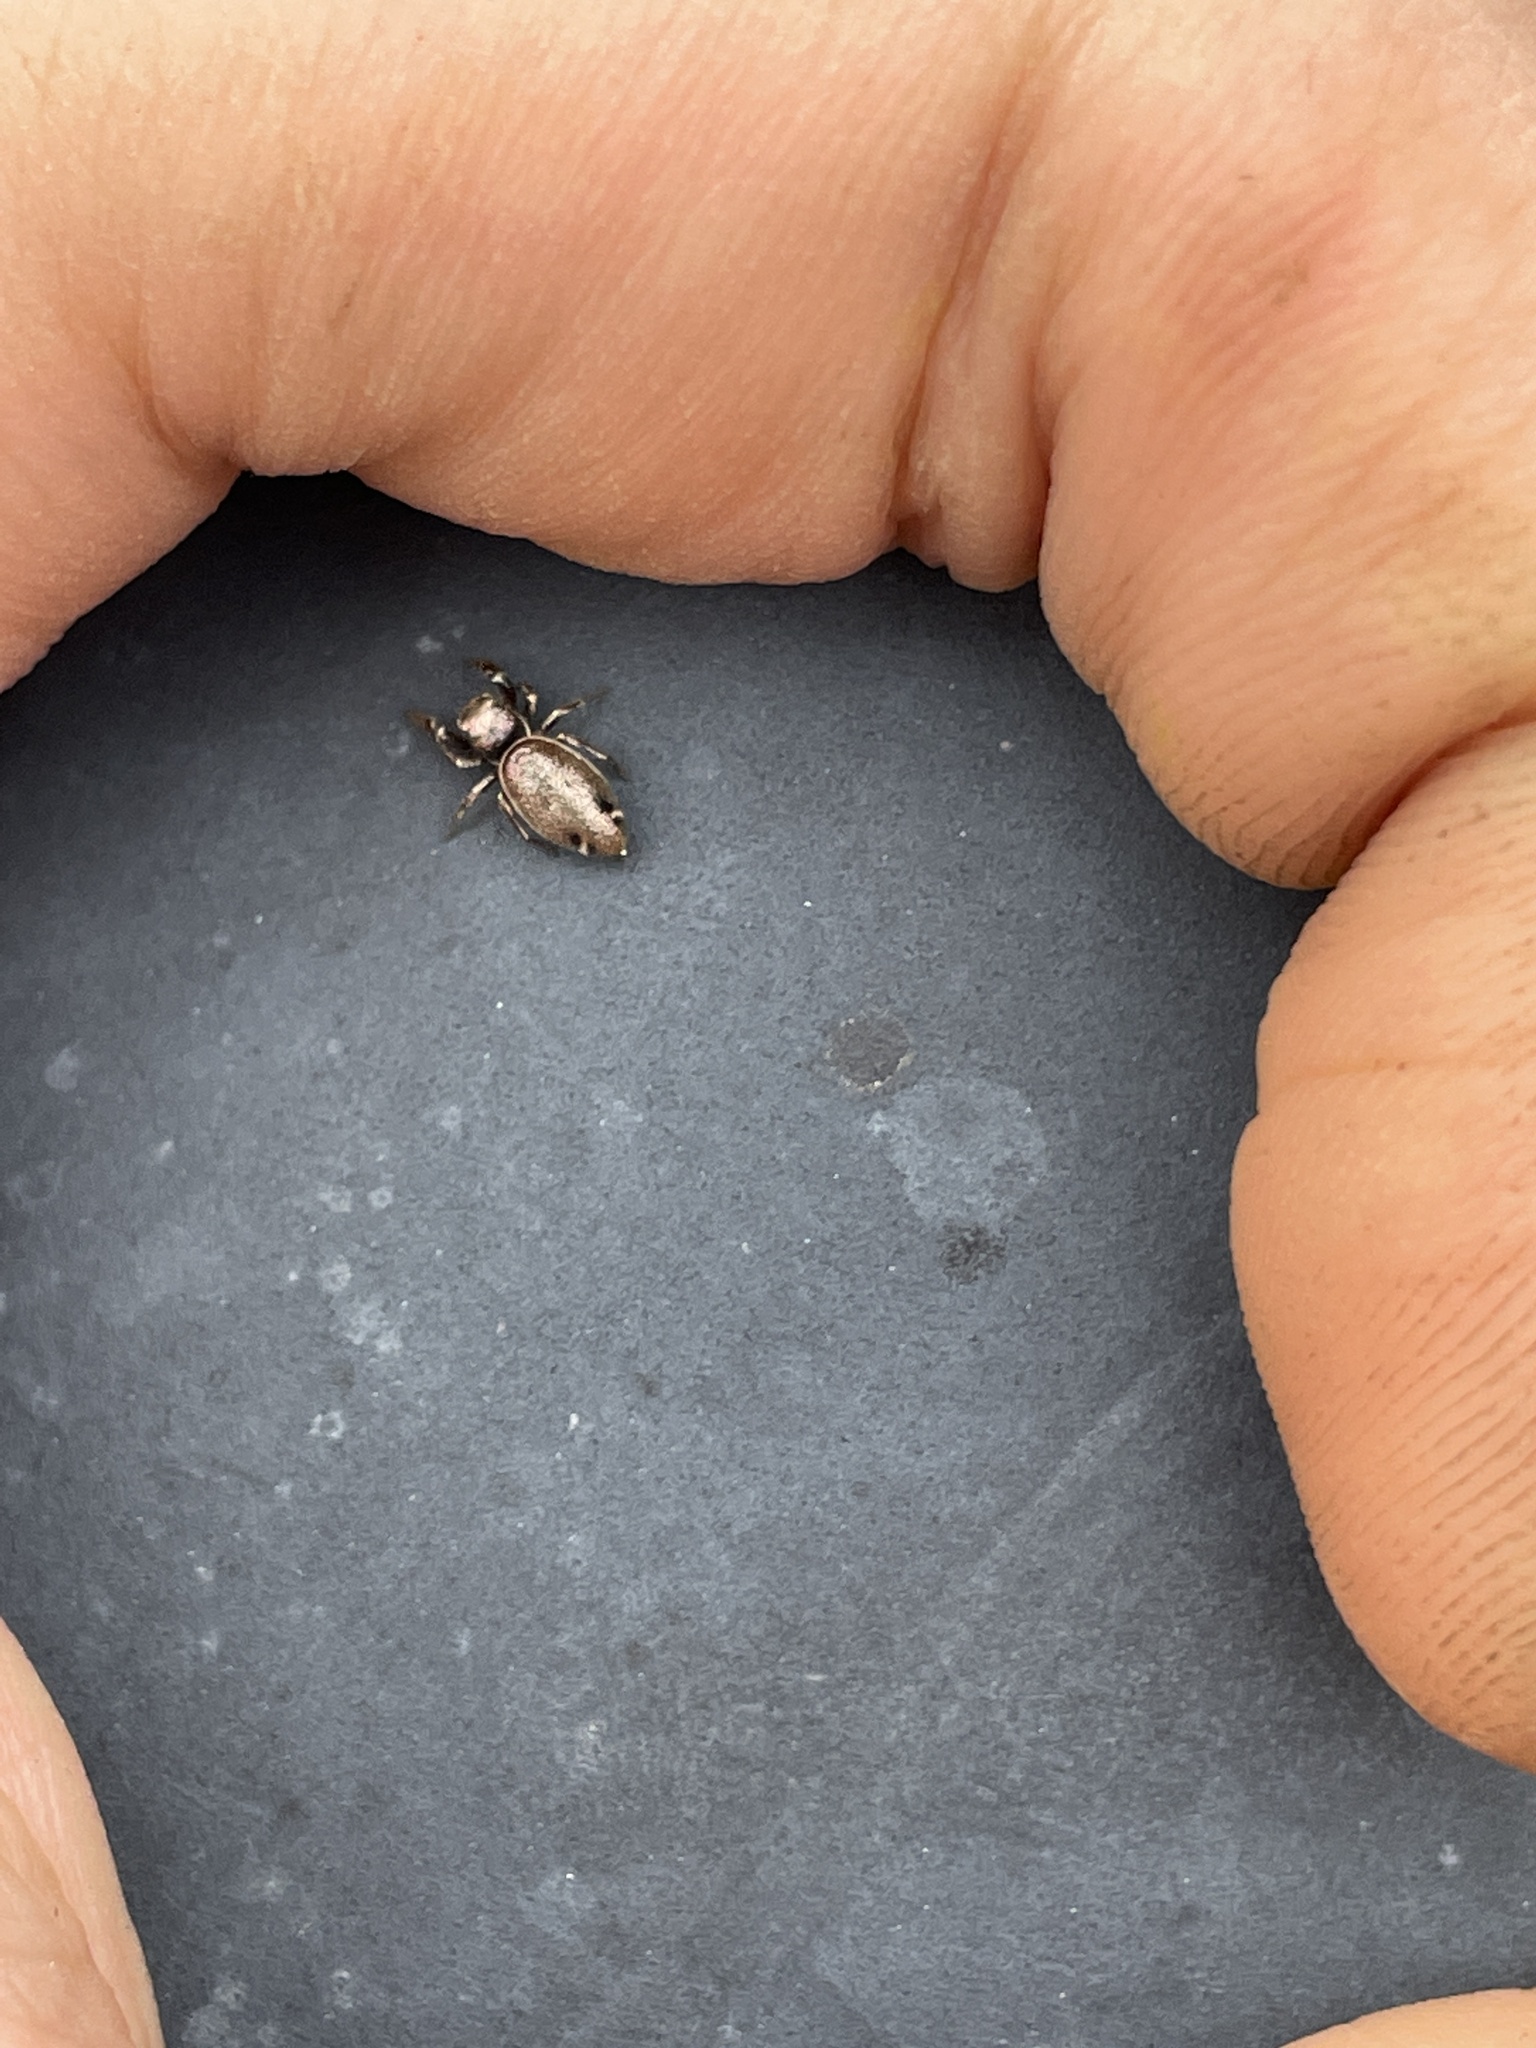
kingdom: Animalia
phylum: Arthropoda
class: Arachnida
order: Araneae
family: Salticidae
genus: Sassacus
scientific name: Sassacus vitis
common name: Jumping spiders
